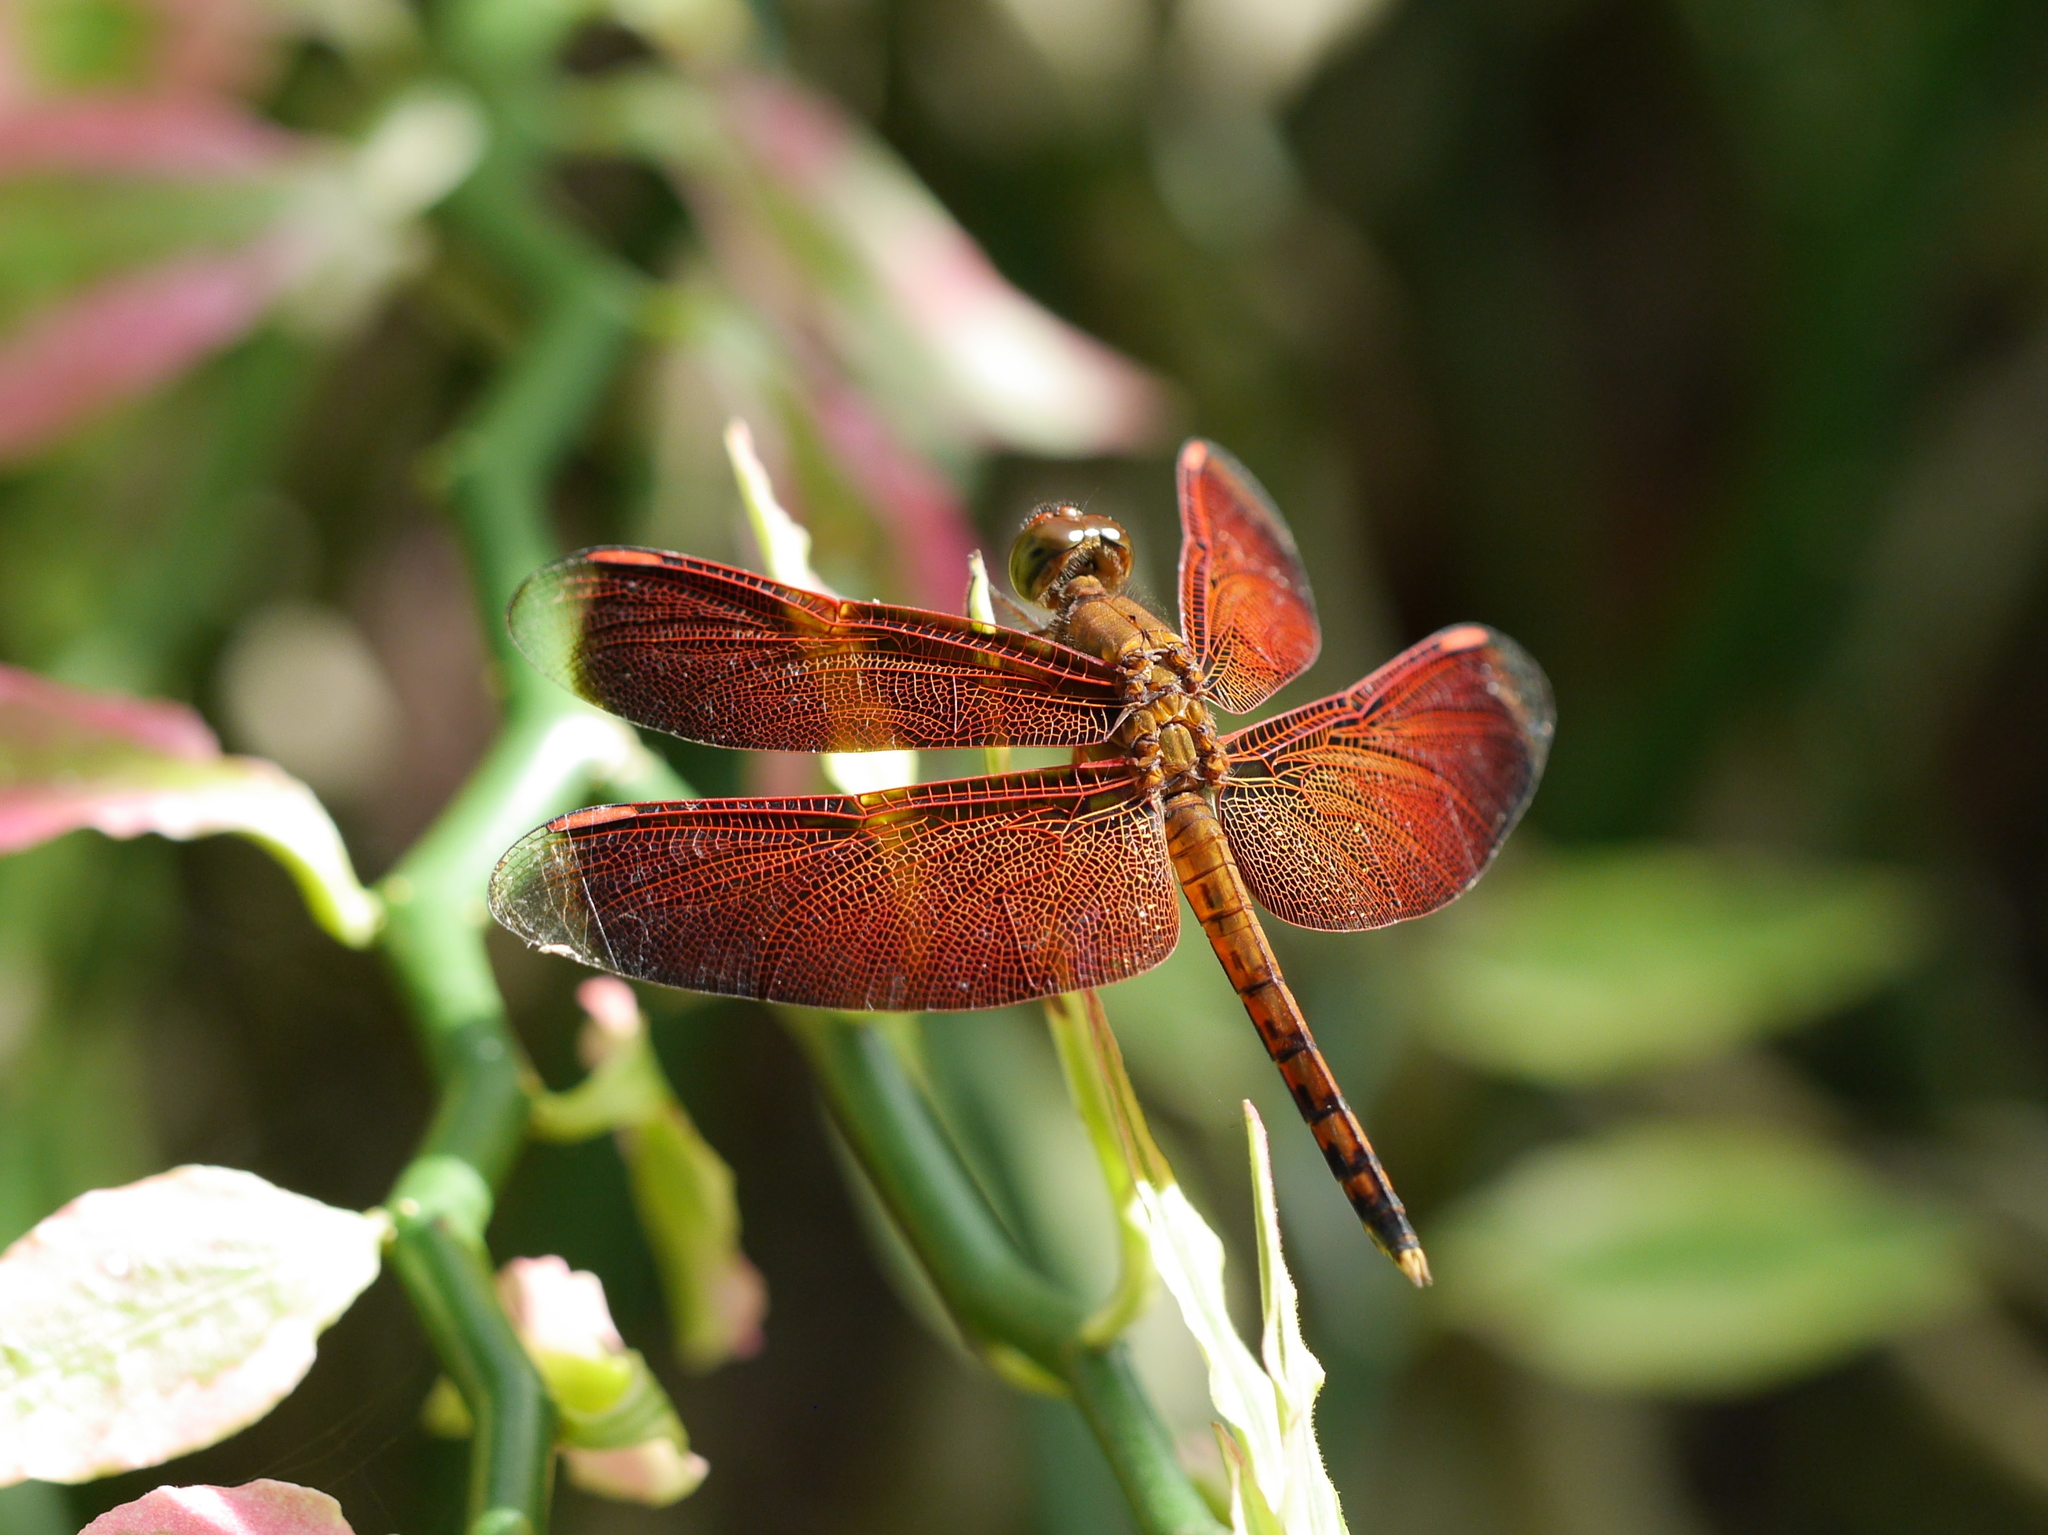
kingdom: Animalia
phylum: Arthropoda
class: Insecta
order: Odonata
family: Libellulidae
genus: Neurothemis
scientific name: Neurothemis terminata
